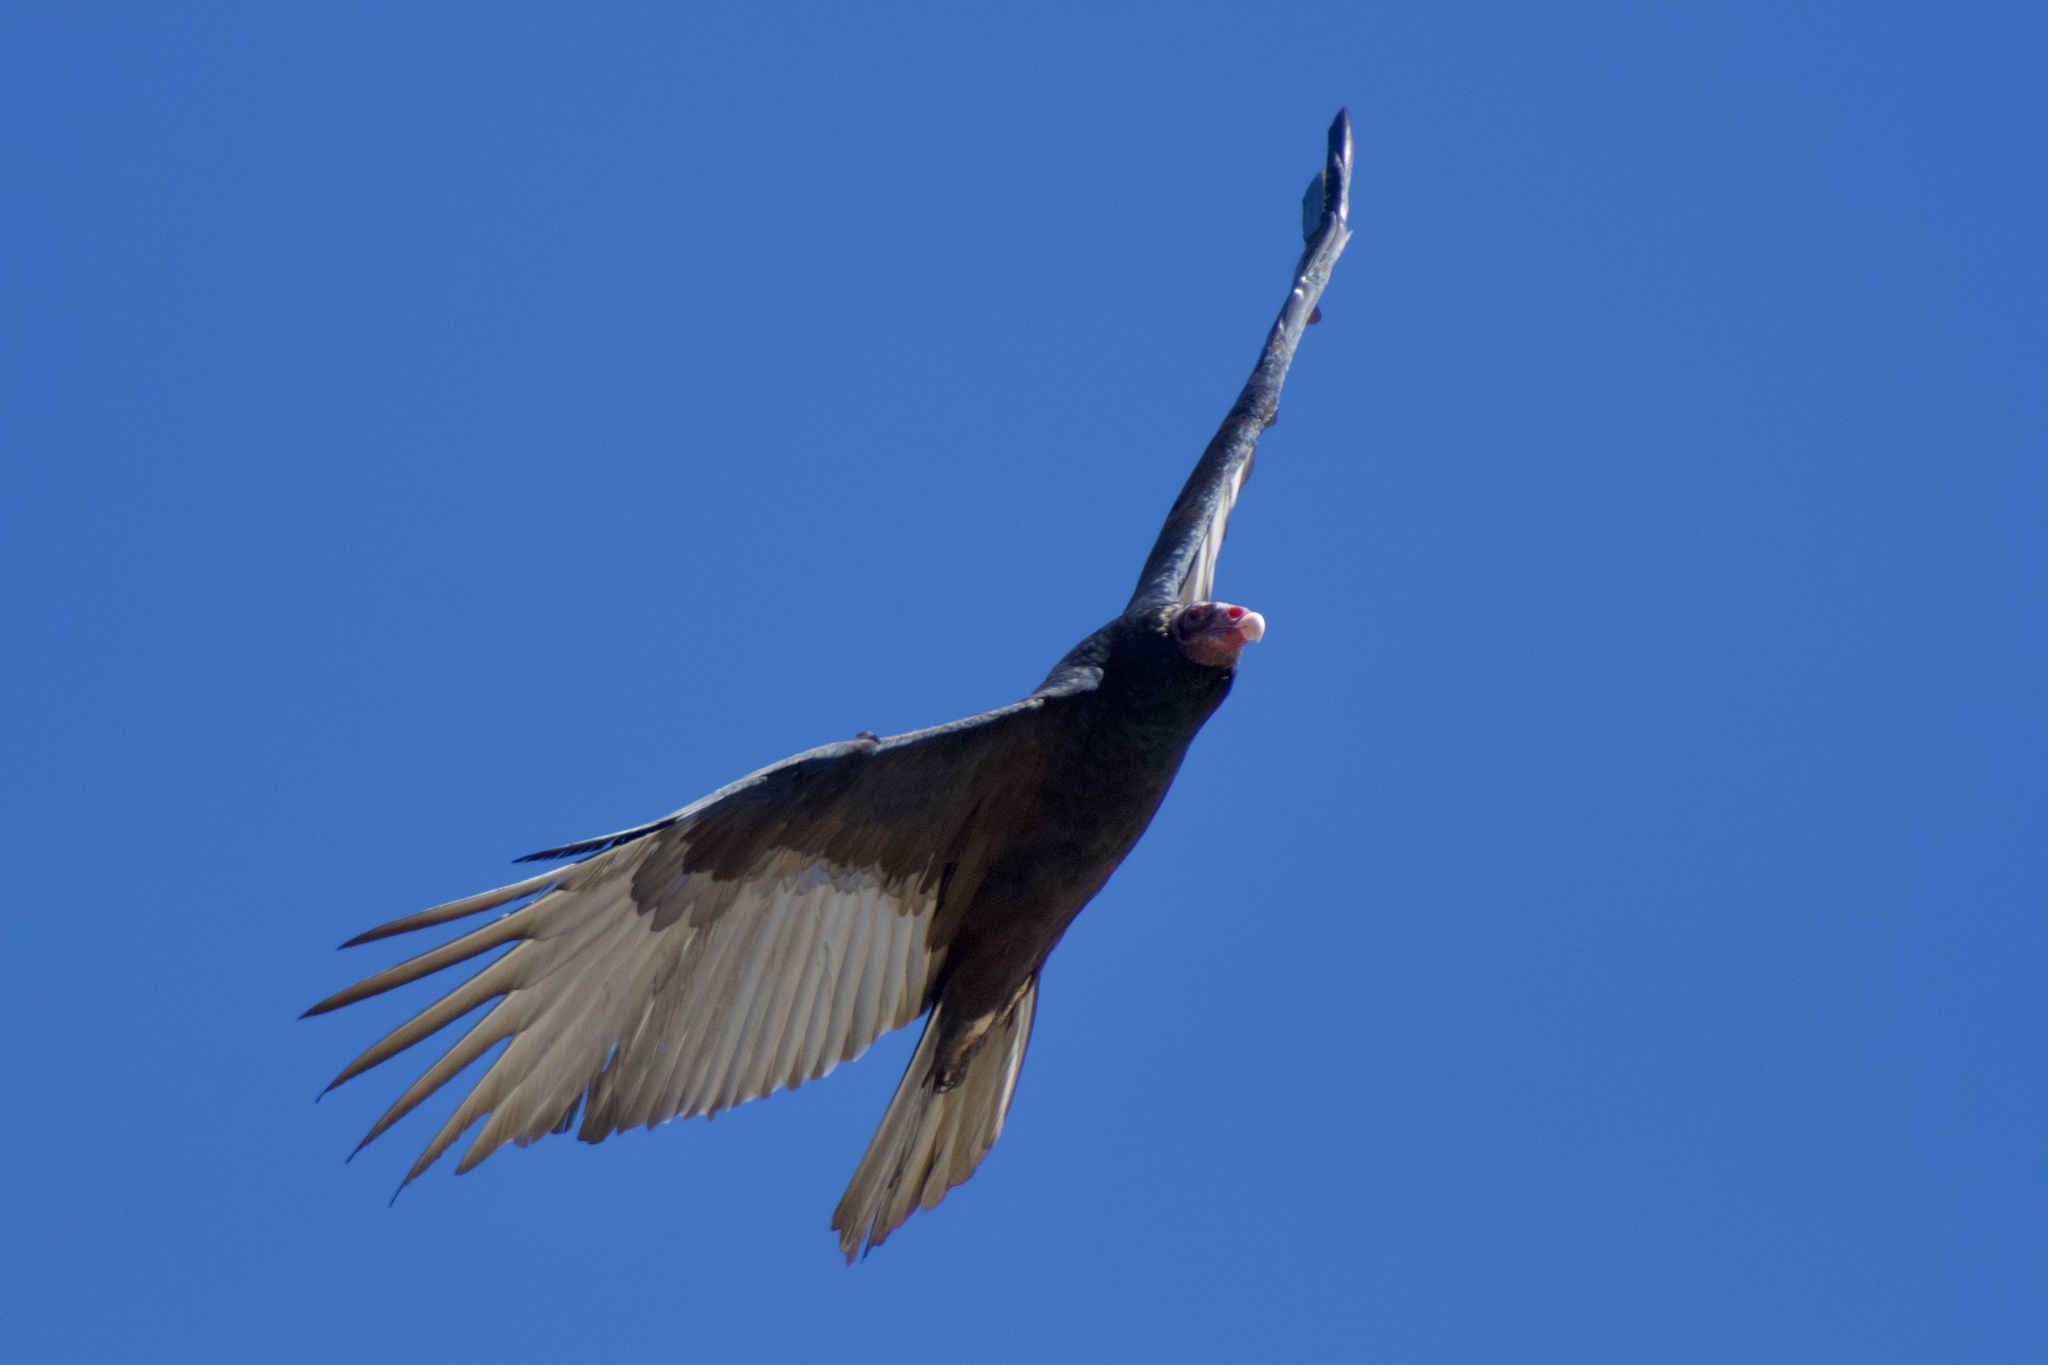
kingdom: Animalia
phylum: Chordata
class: Aves
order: Accipitriformes
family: Cathartidae
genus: Cathartes
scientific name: Cathartes aura
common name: Turkey vulture
